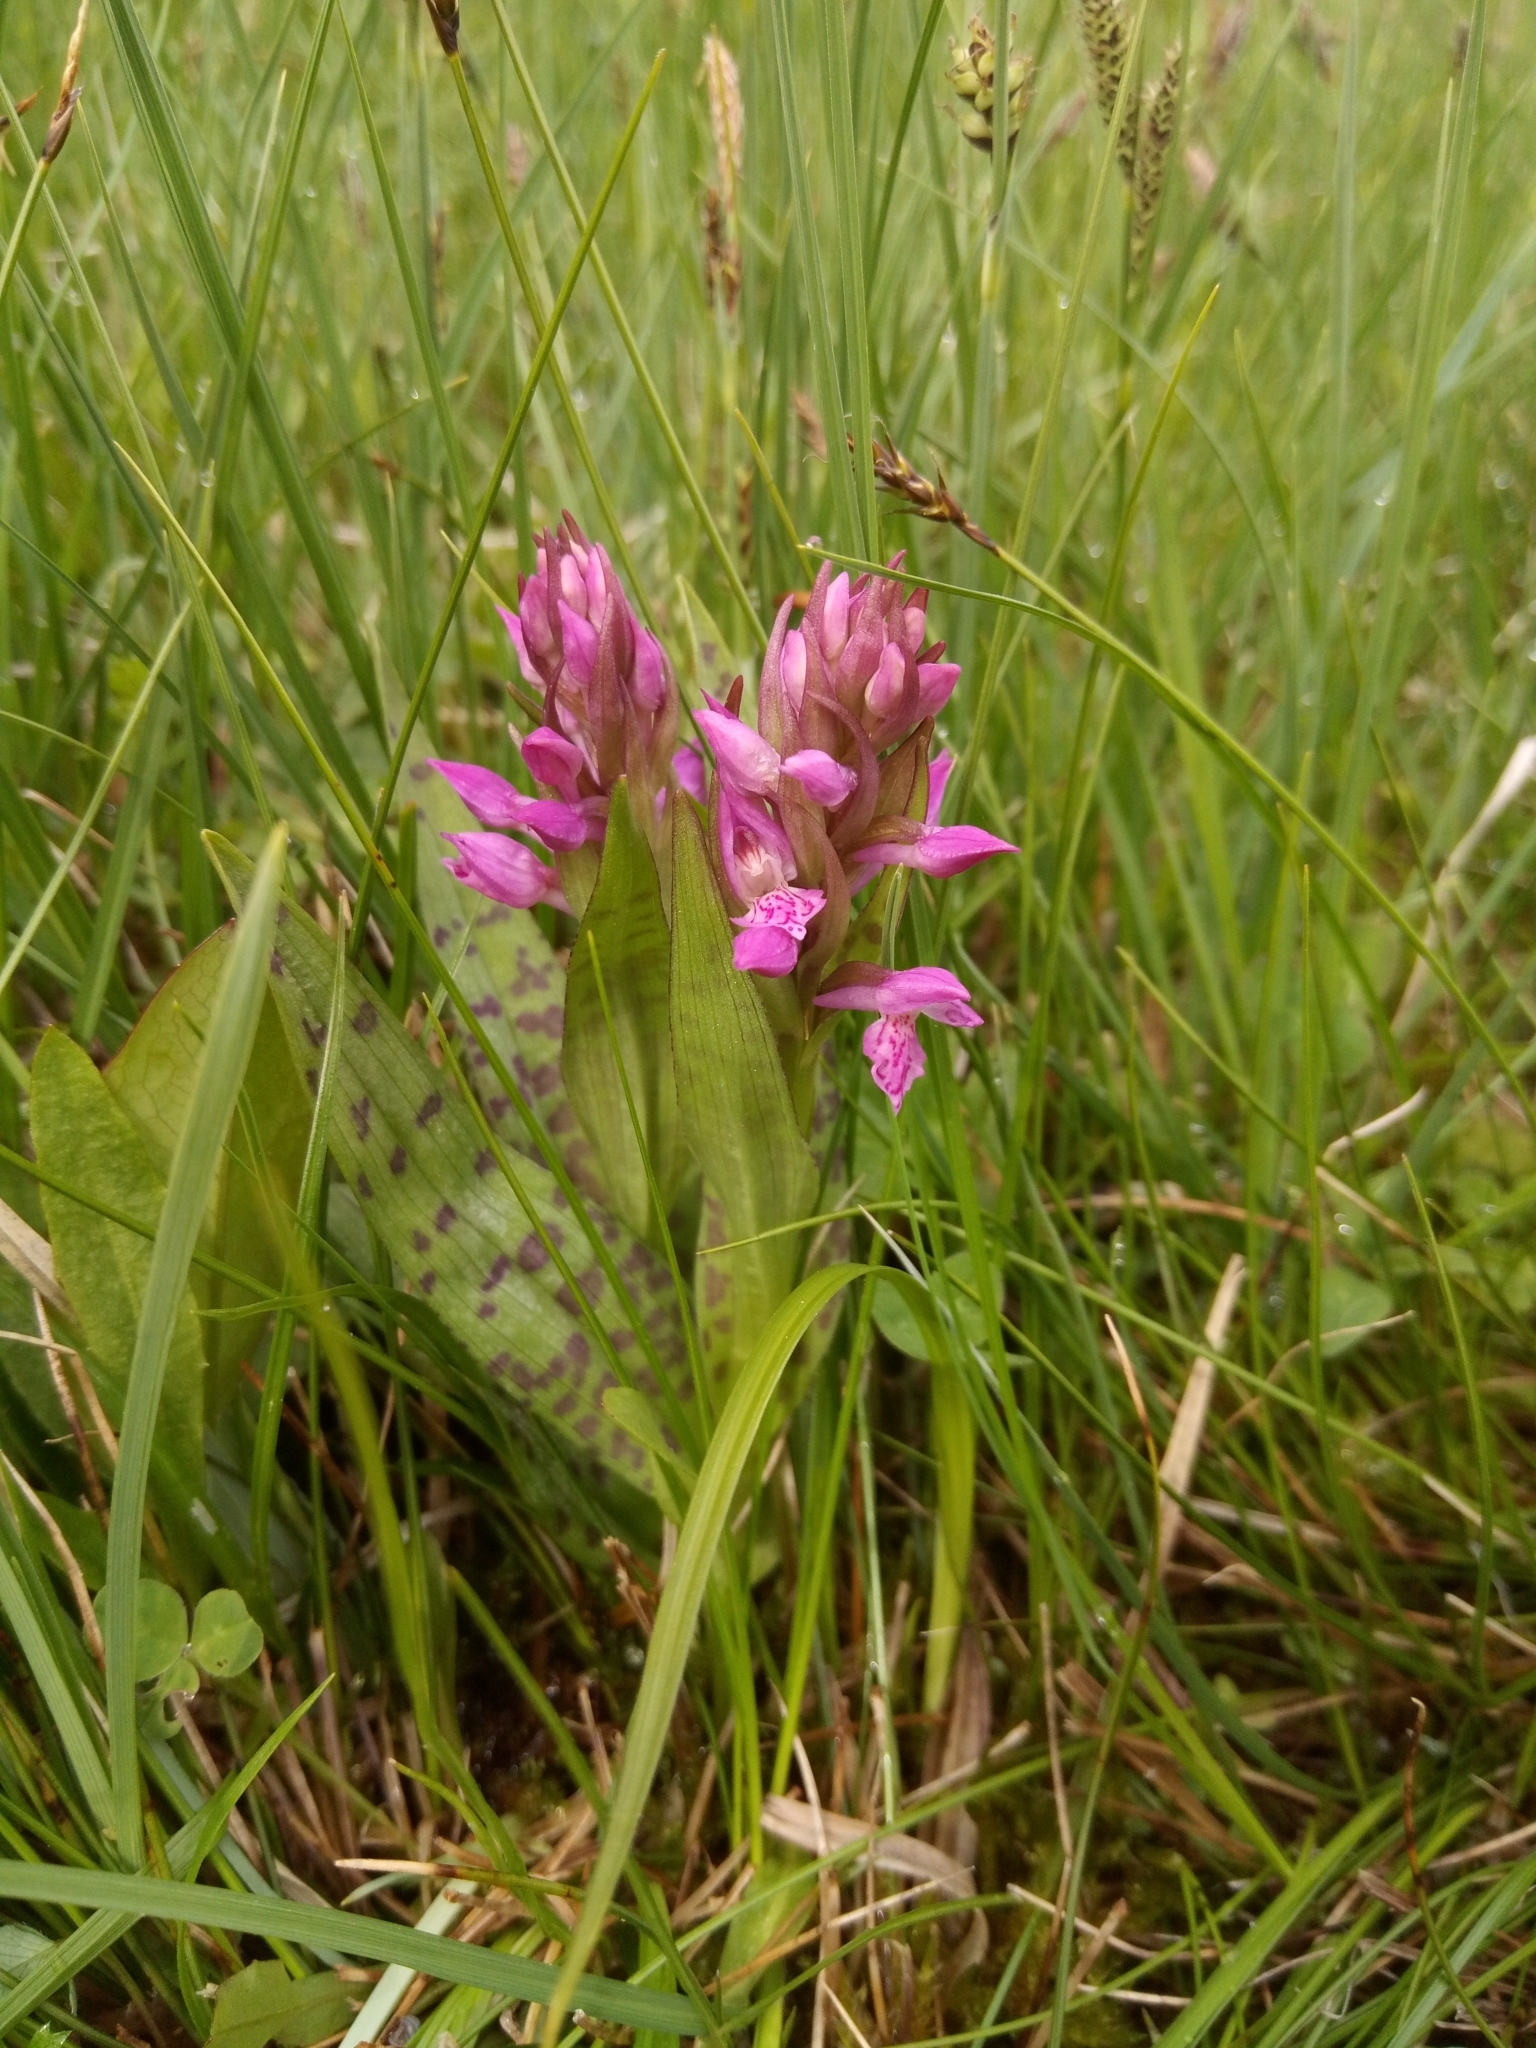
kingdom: Plantae
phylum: Tracheophyta
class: Liliopsida
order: Asparagales
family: Orchidaceae
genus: Dactylorhiza
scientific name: Dactylorhiza majalis
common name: Marsh orchid
